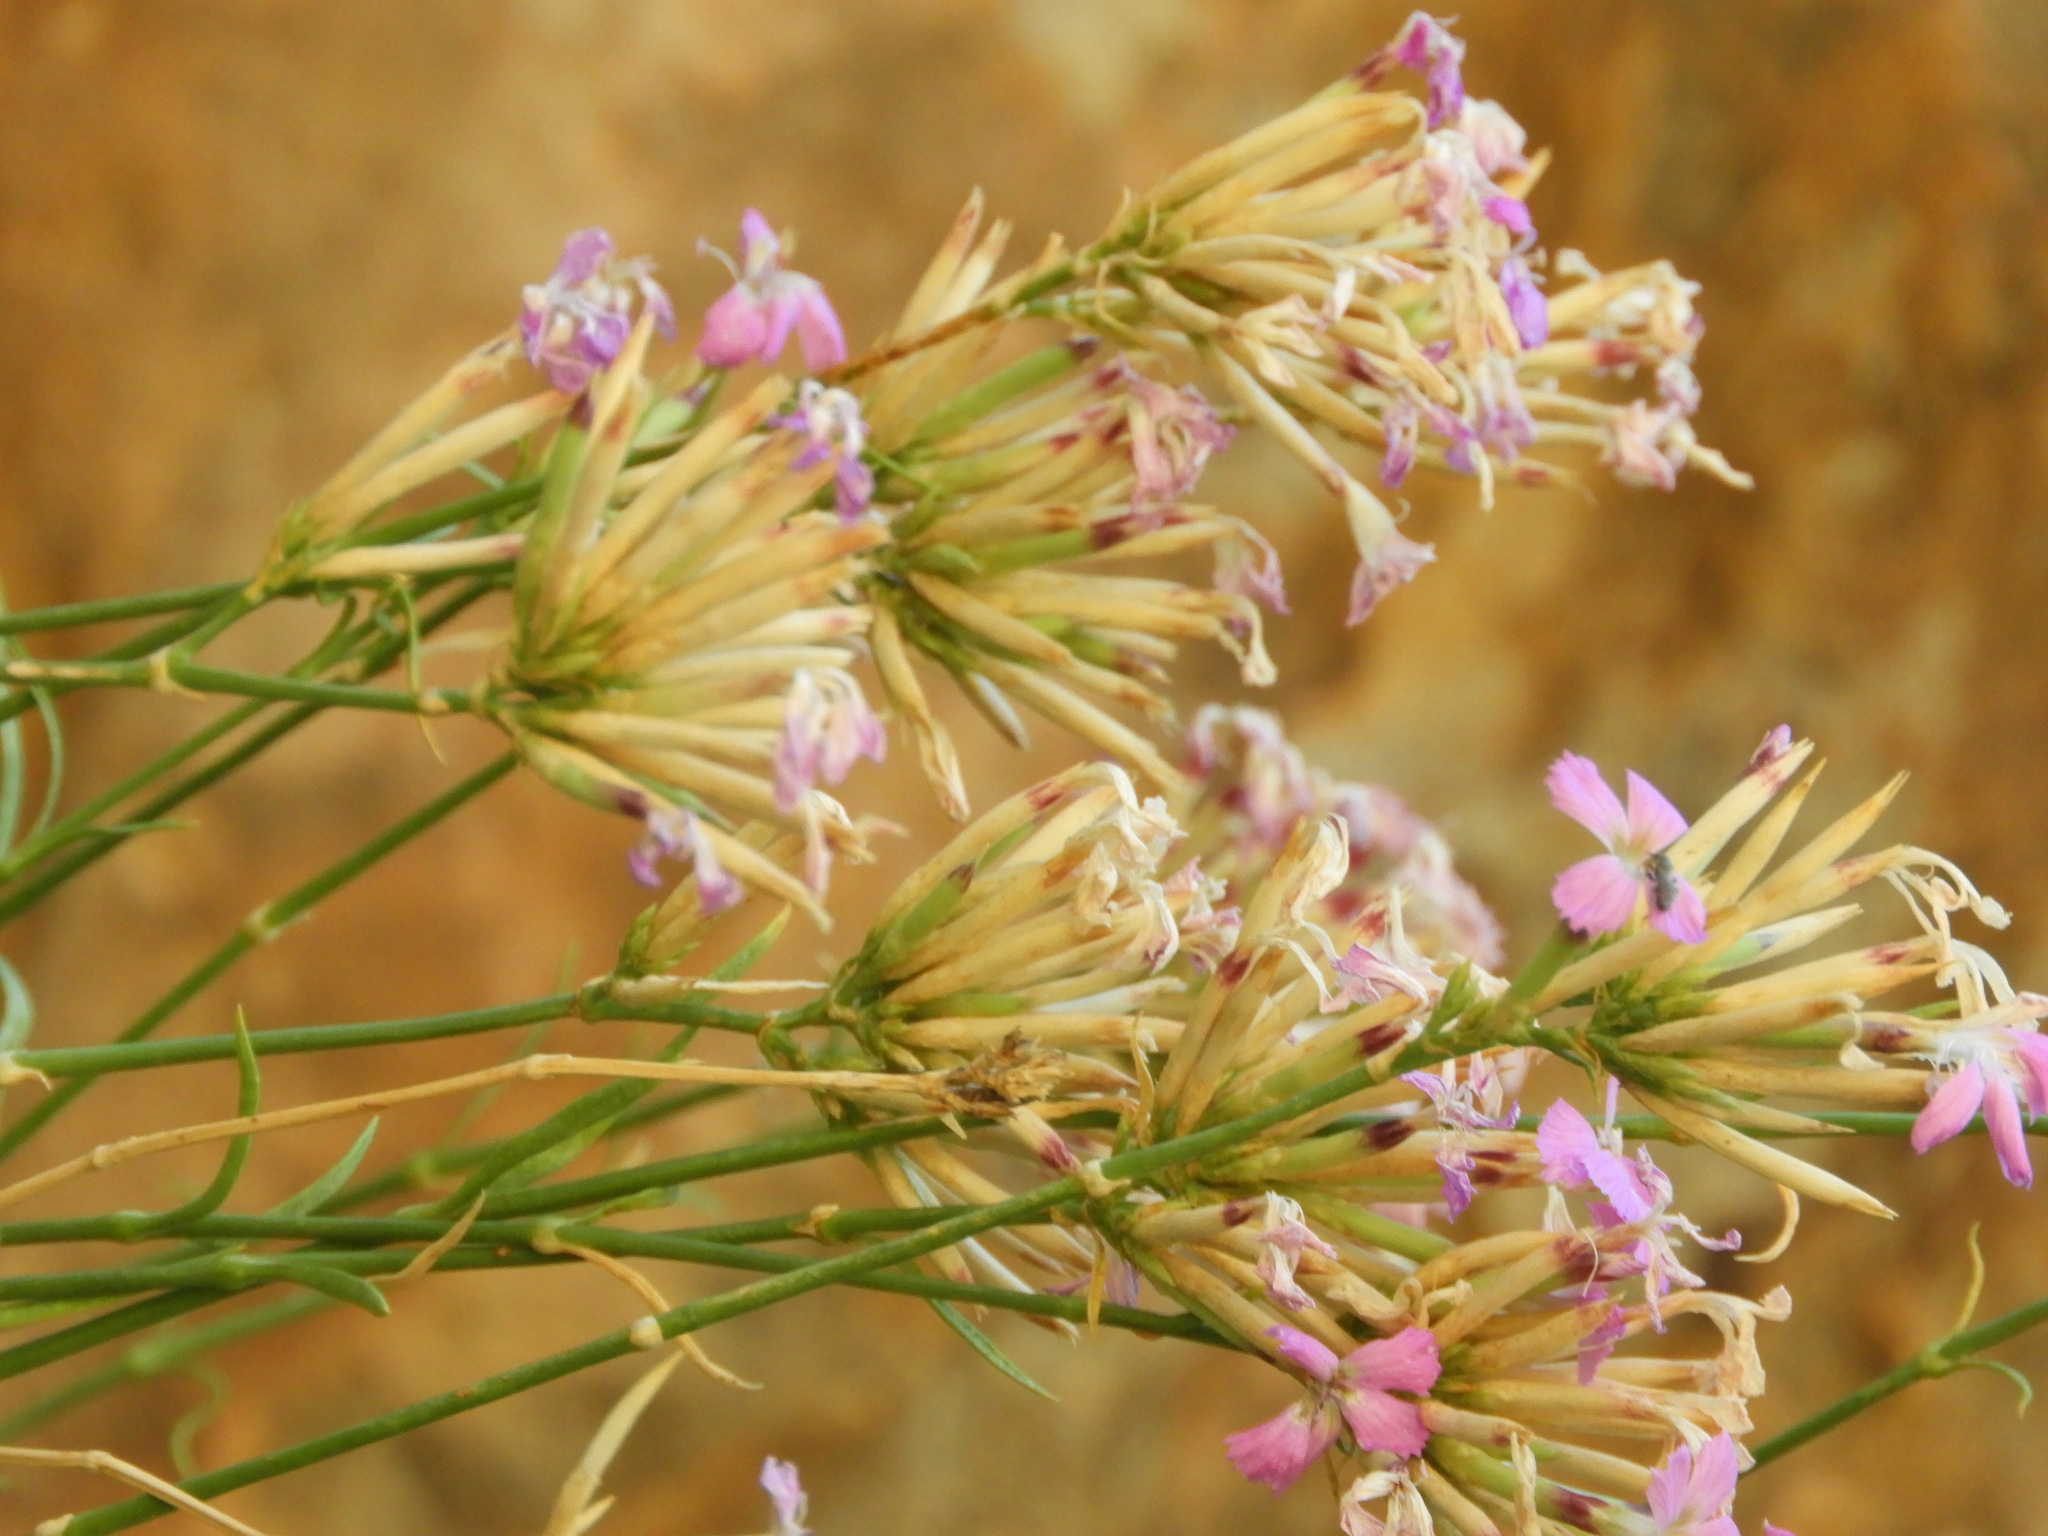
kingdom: Plantae
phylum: Tracheophyta
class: Magnoliopsida
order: Caryophyllales
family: Caryophyllaceae
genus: Dianthus
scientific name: Dianthus rupicola
